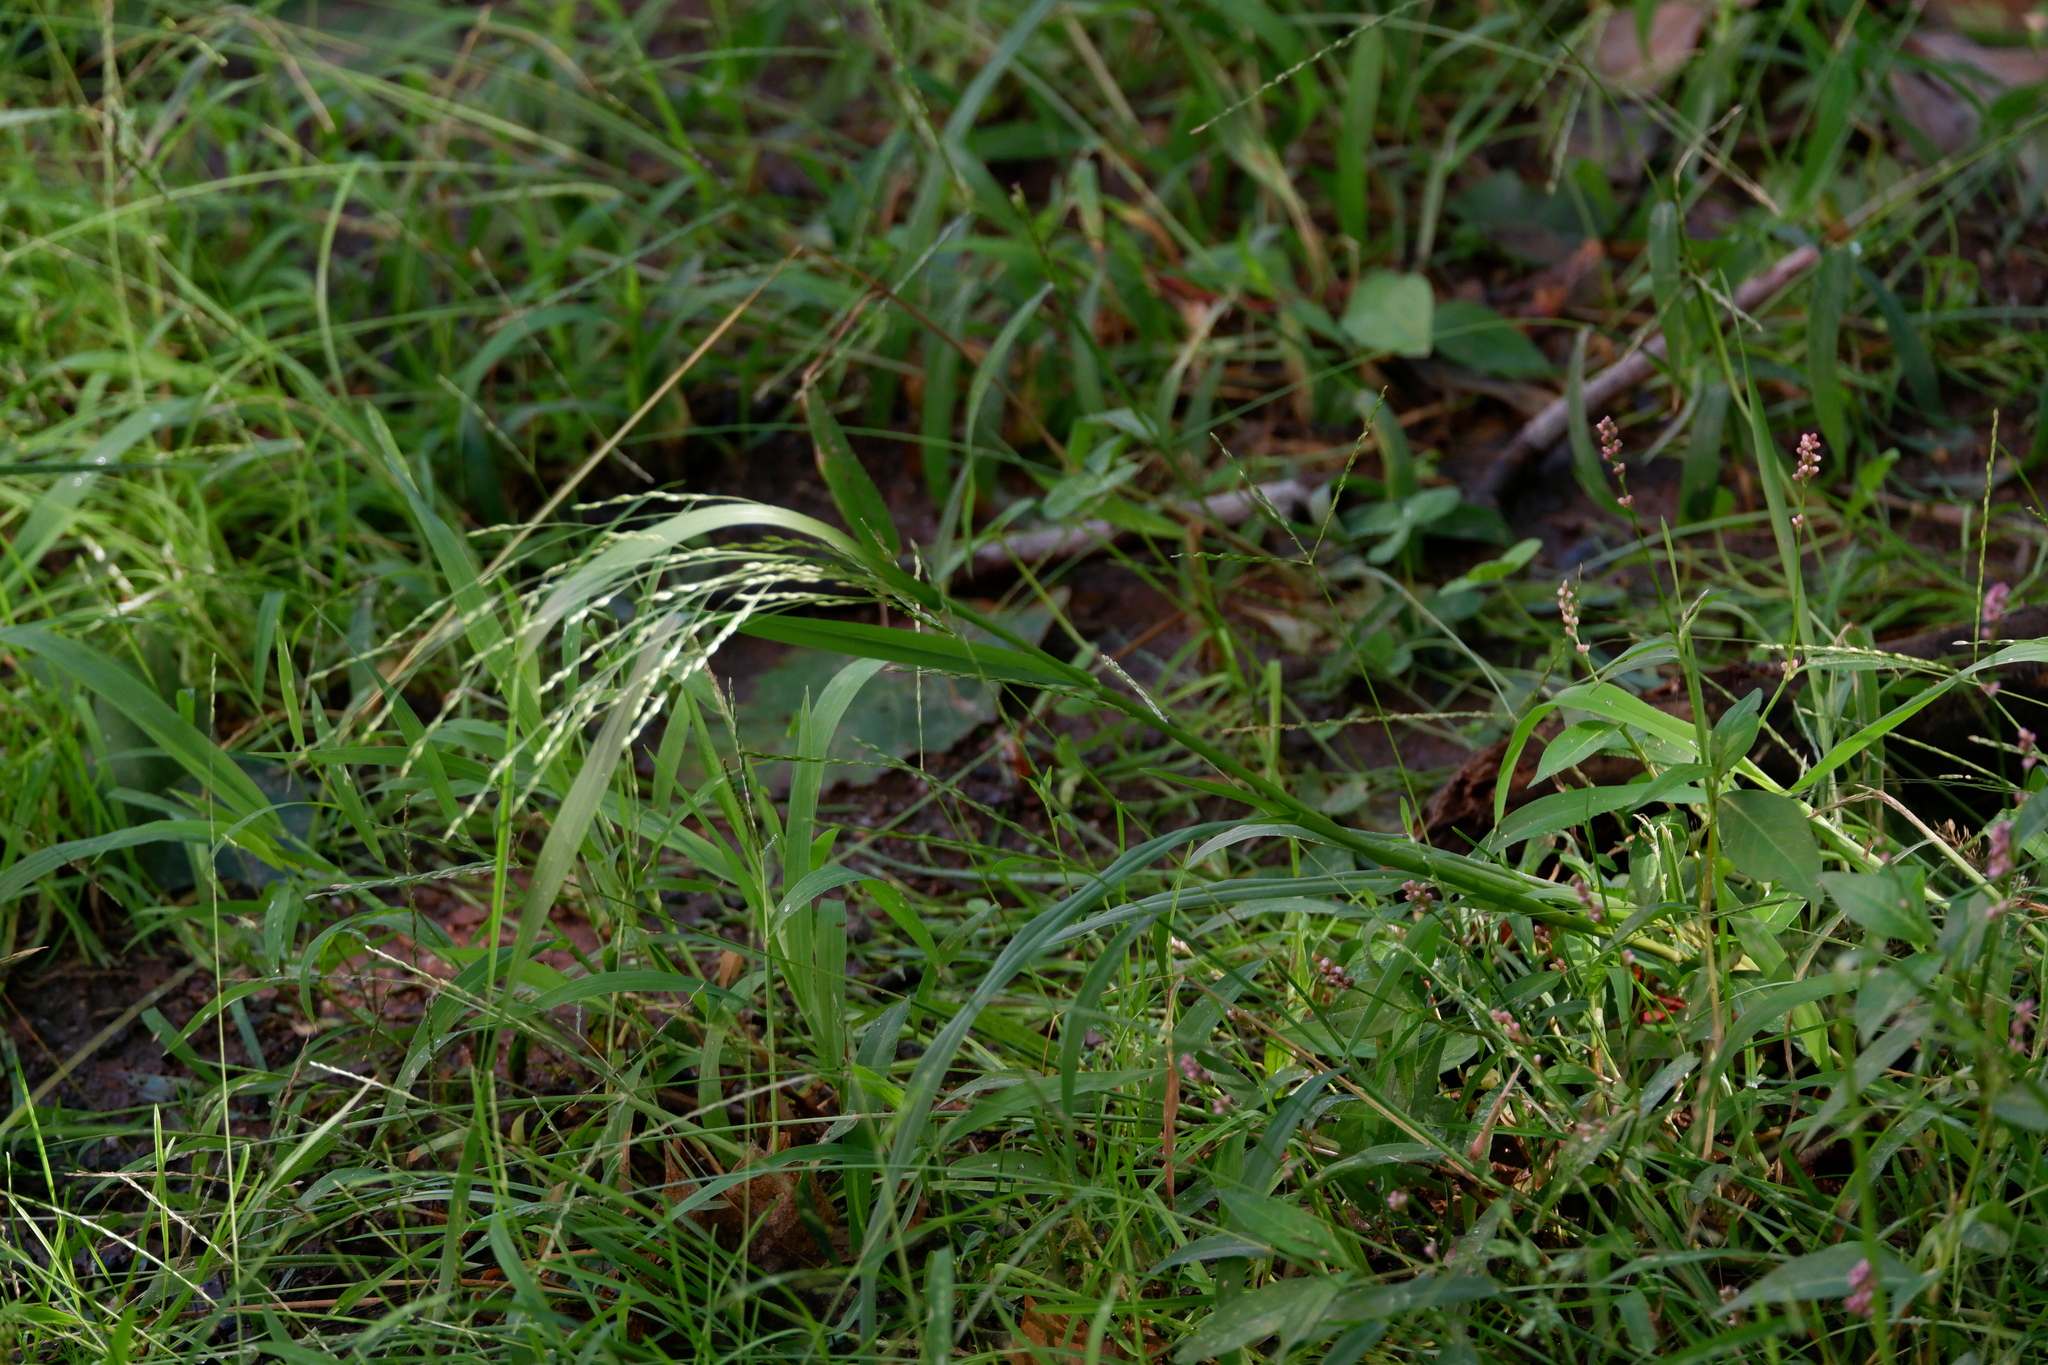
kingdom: Plantae
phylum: Tracheophyta
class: Liliopsida
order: Poales
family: Poaceae
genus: Panicum
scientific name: Panicum dichotomiflorum
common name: Autumn millet
